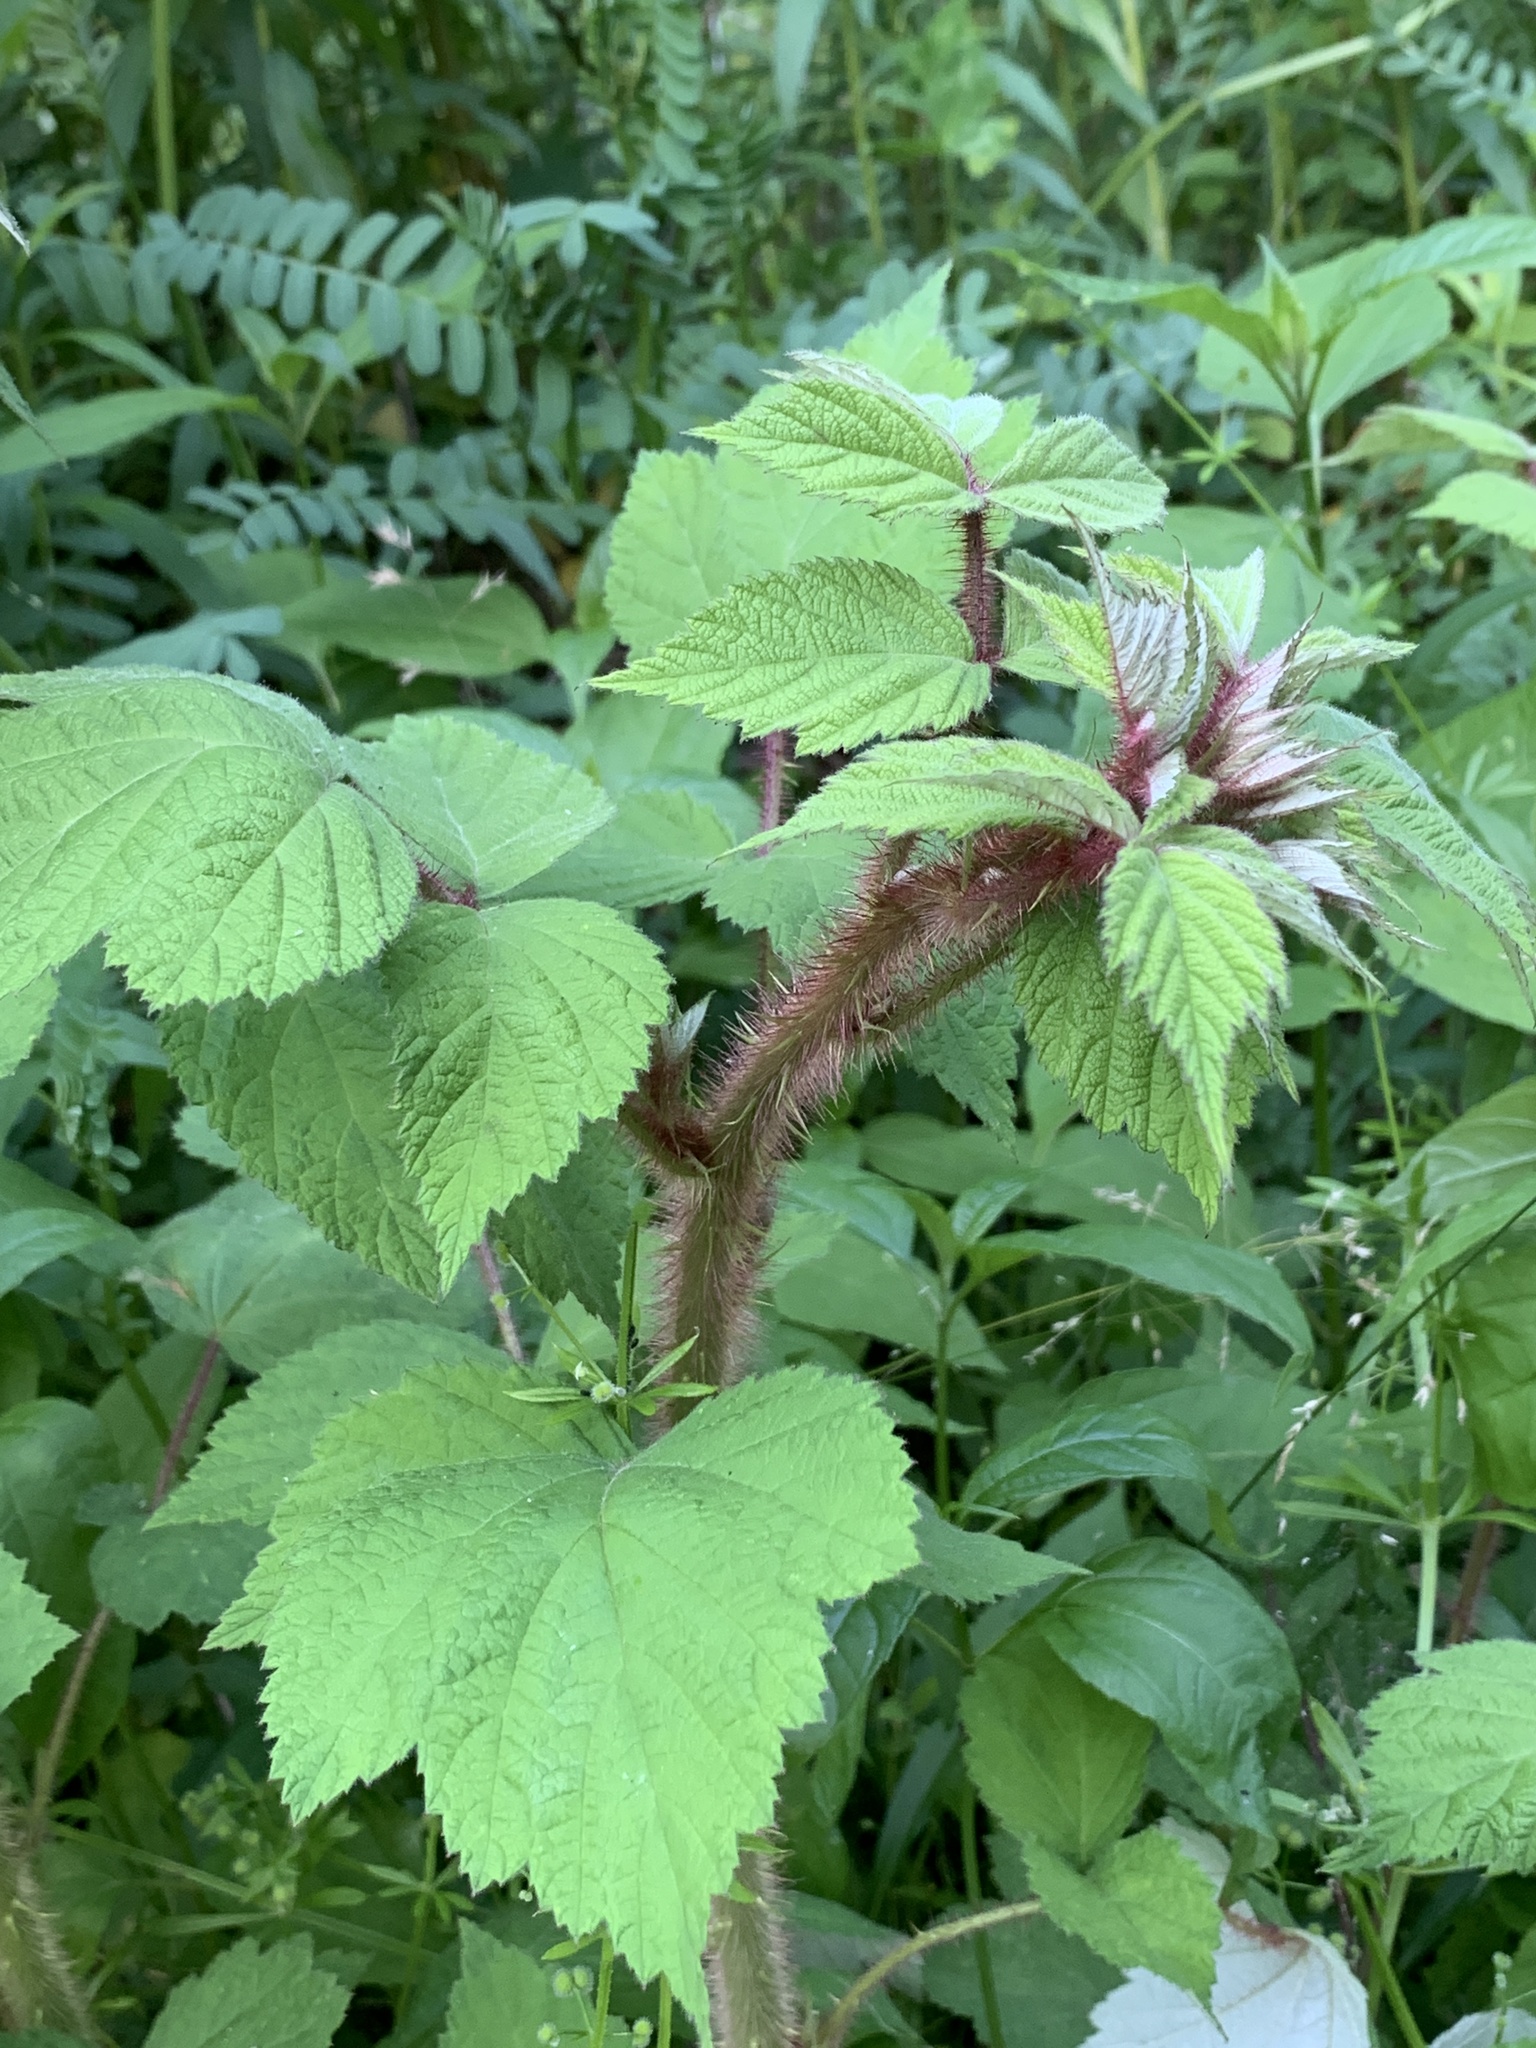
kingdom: Plantae
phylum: Tracheophyta
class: Magnoliopsida
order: Rosales
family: Rosaceae
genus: Rubus
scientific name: Rubus phoenicolasius
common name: Japanese wineberry
